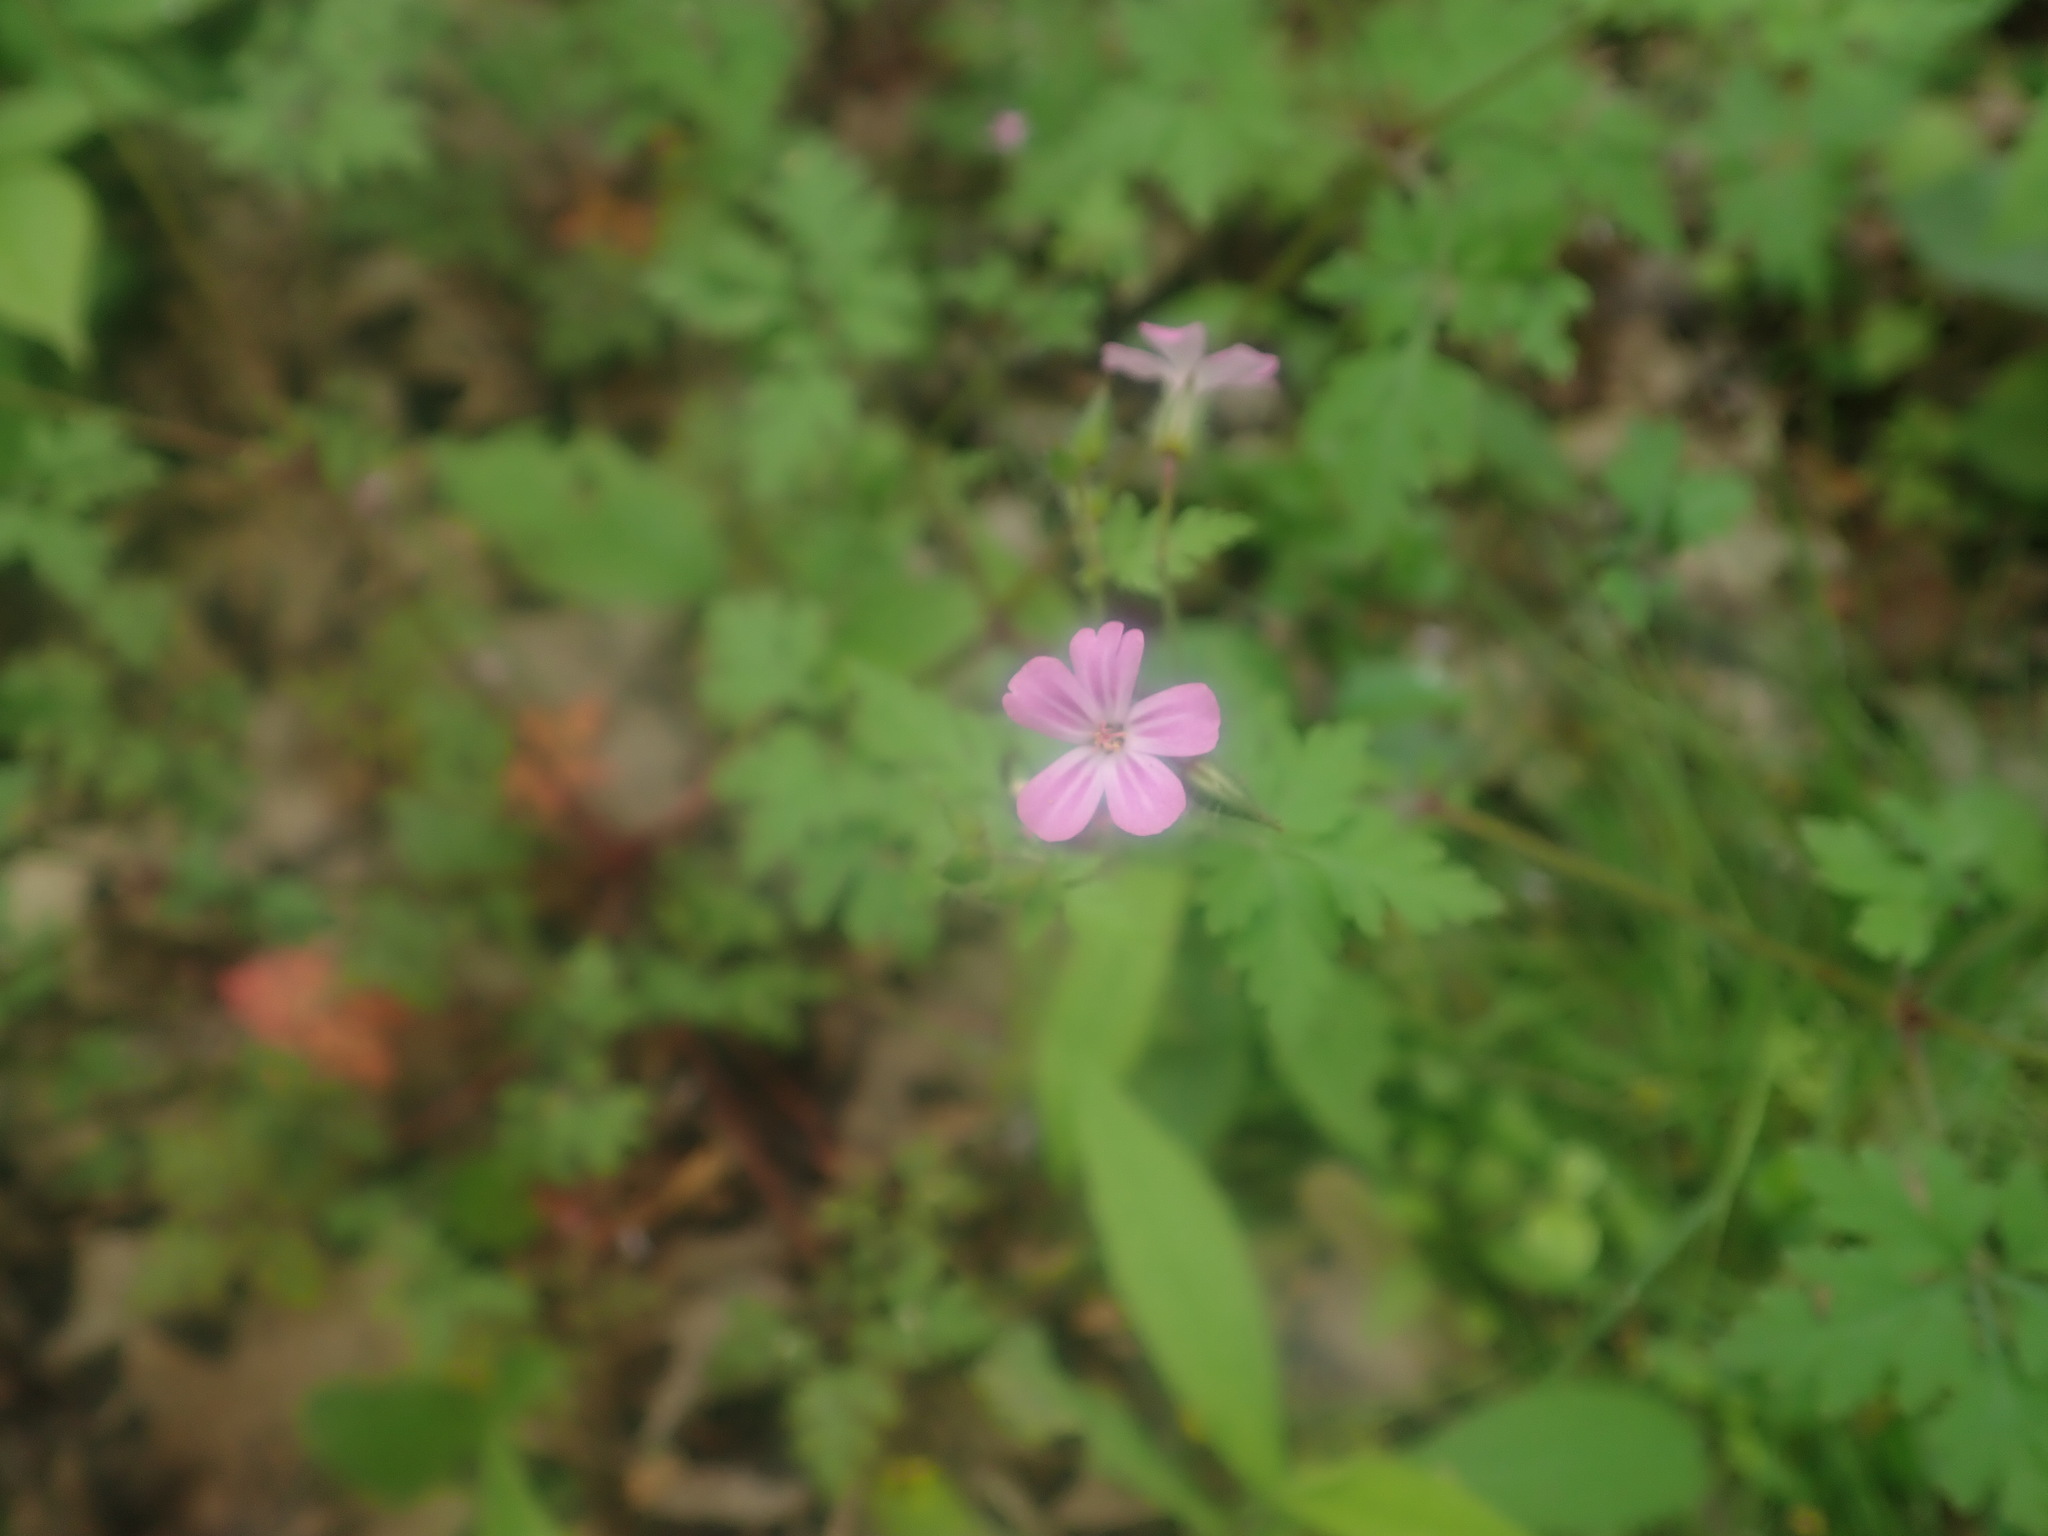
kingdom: Plantae
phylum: Tracheophyta
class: Magnoliopsida
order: Geraniales
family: Geraniaceae
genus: Geranium
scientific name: Geranium robertianum
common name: Herb-robert
